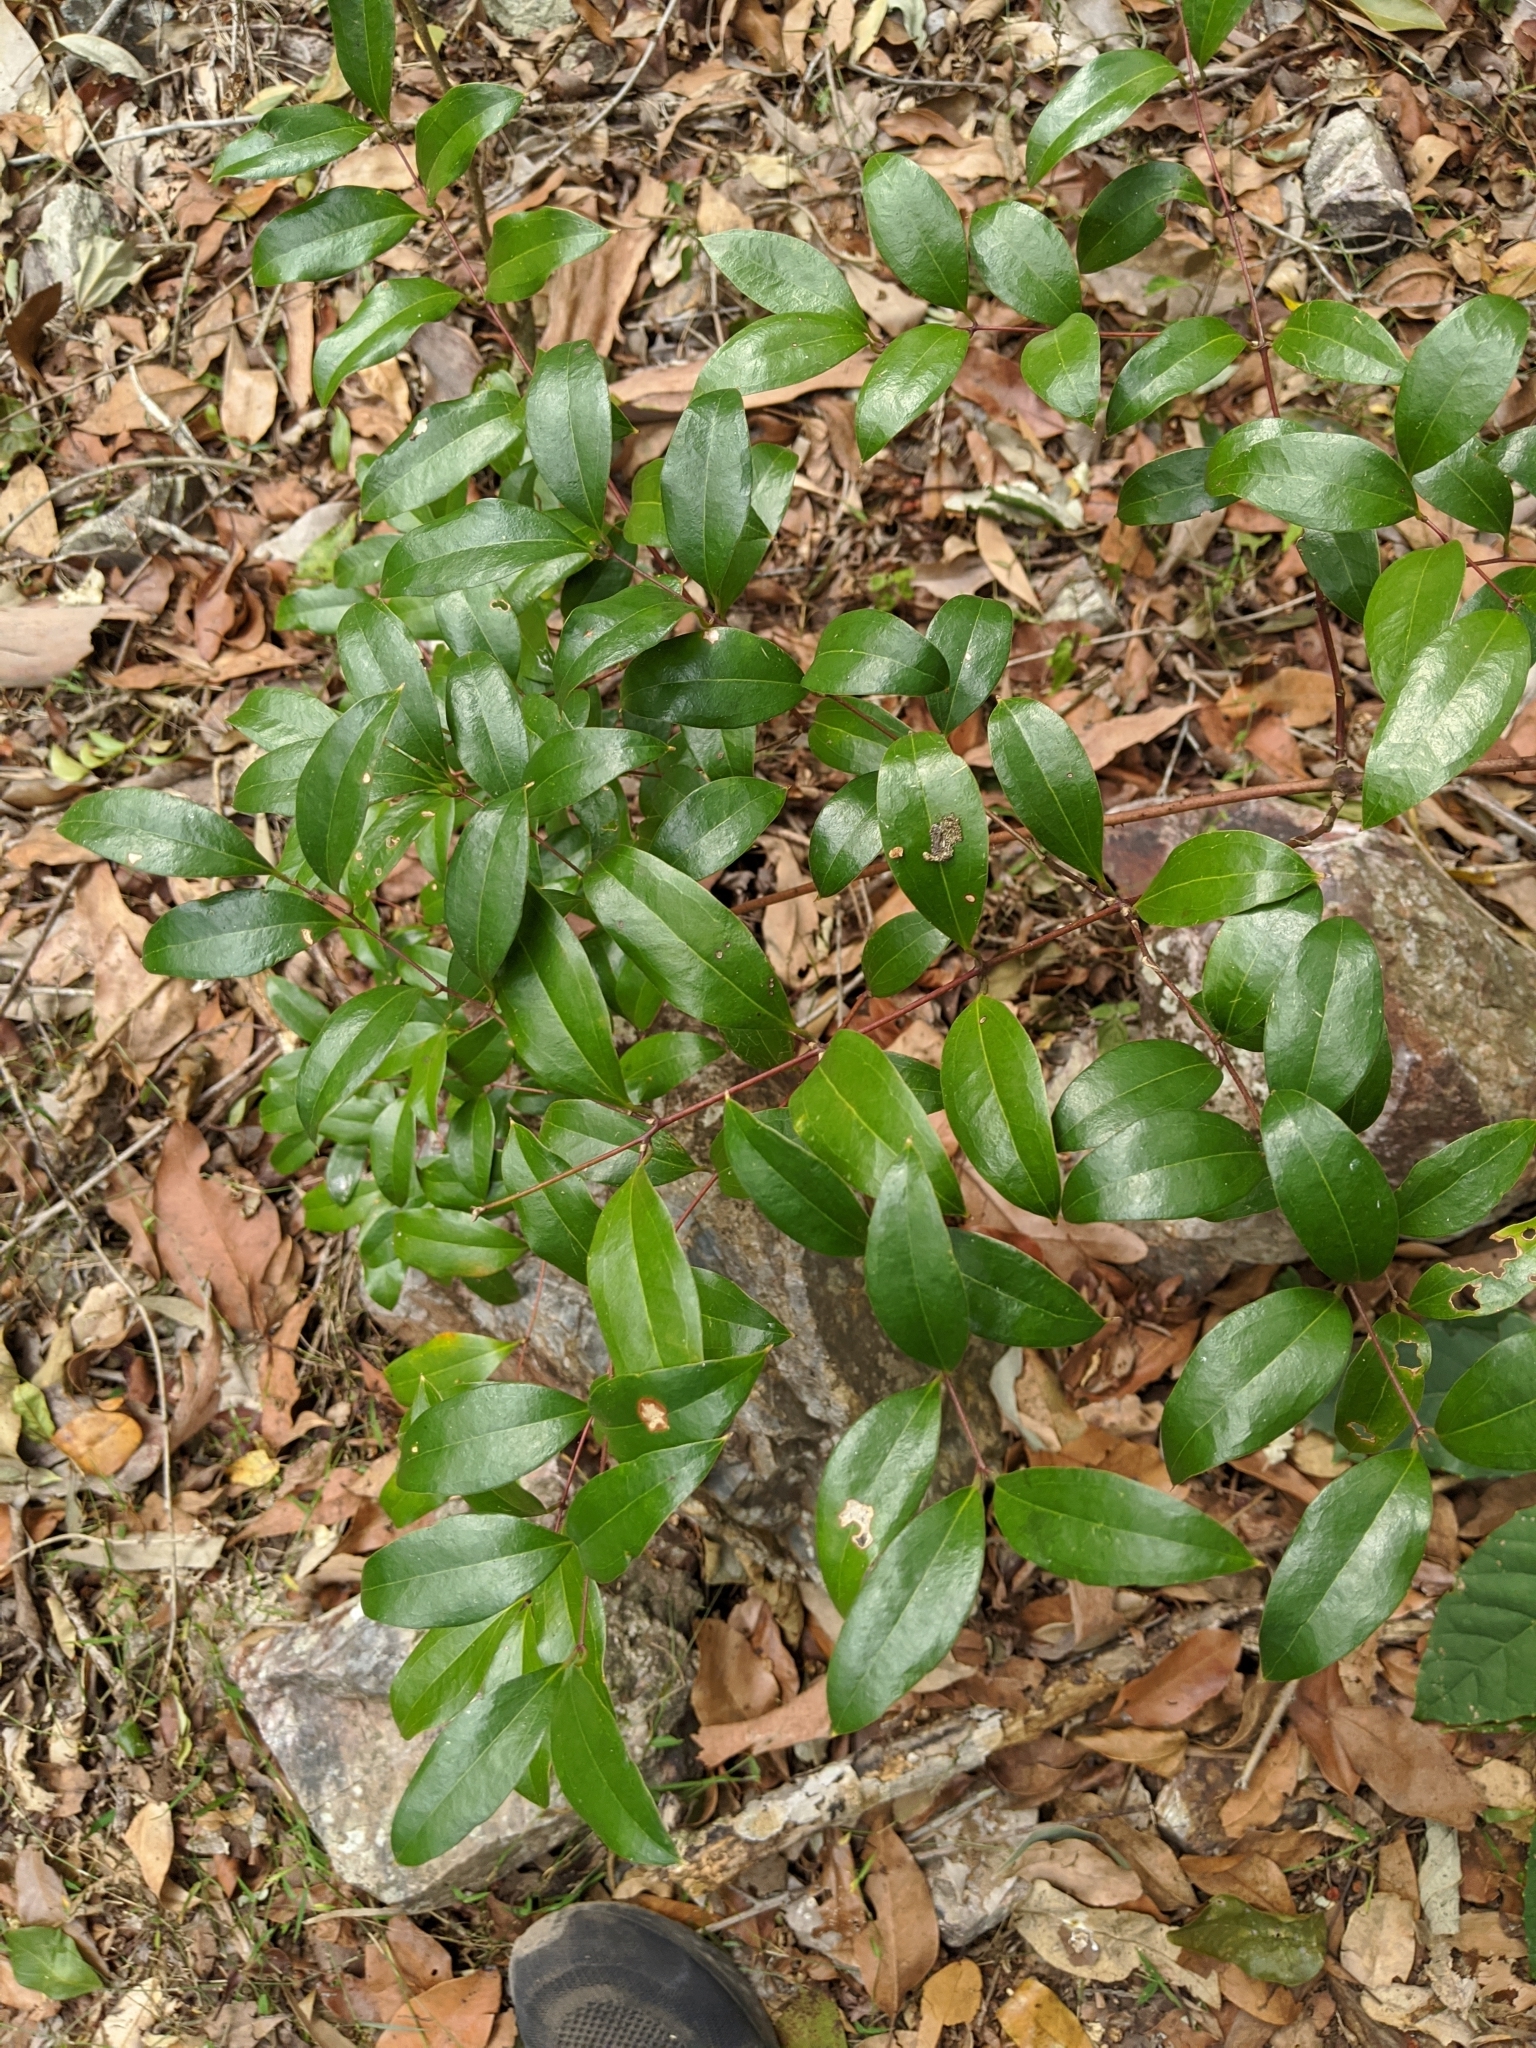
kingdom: Plantae
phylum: Tracheophyta
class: Liliopsida
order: Liliales
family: Ripogonaceae
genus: Ripogonum
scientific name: Ripogonum brevifolium
